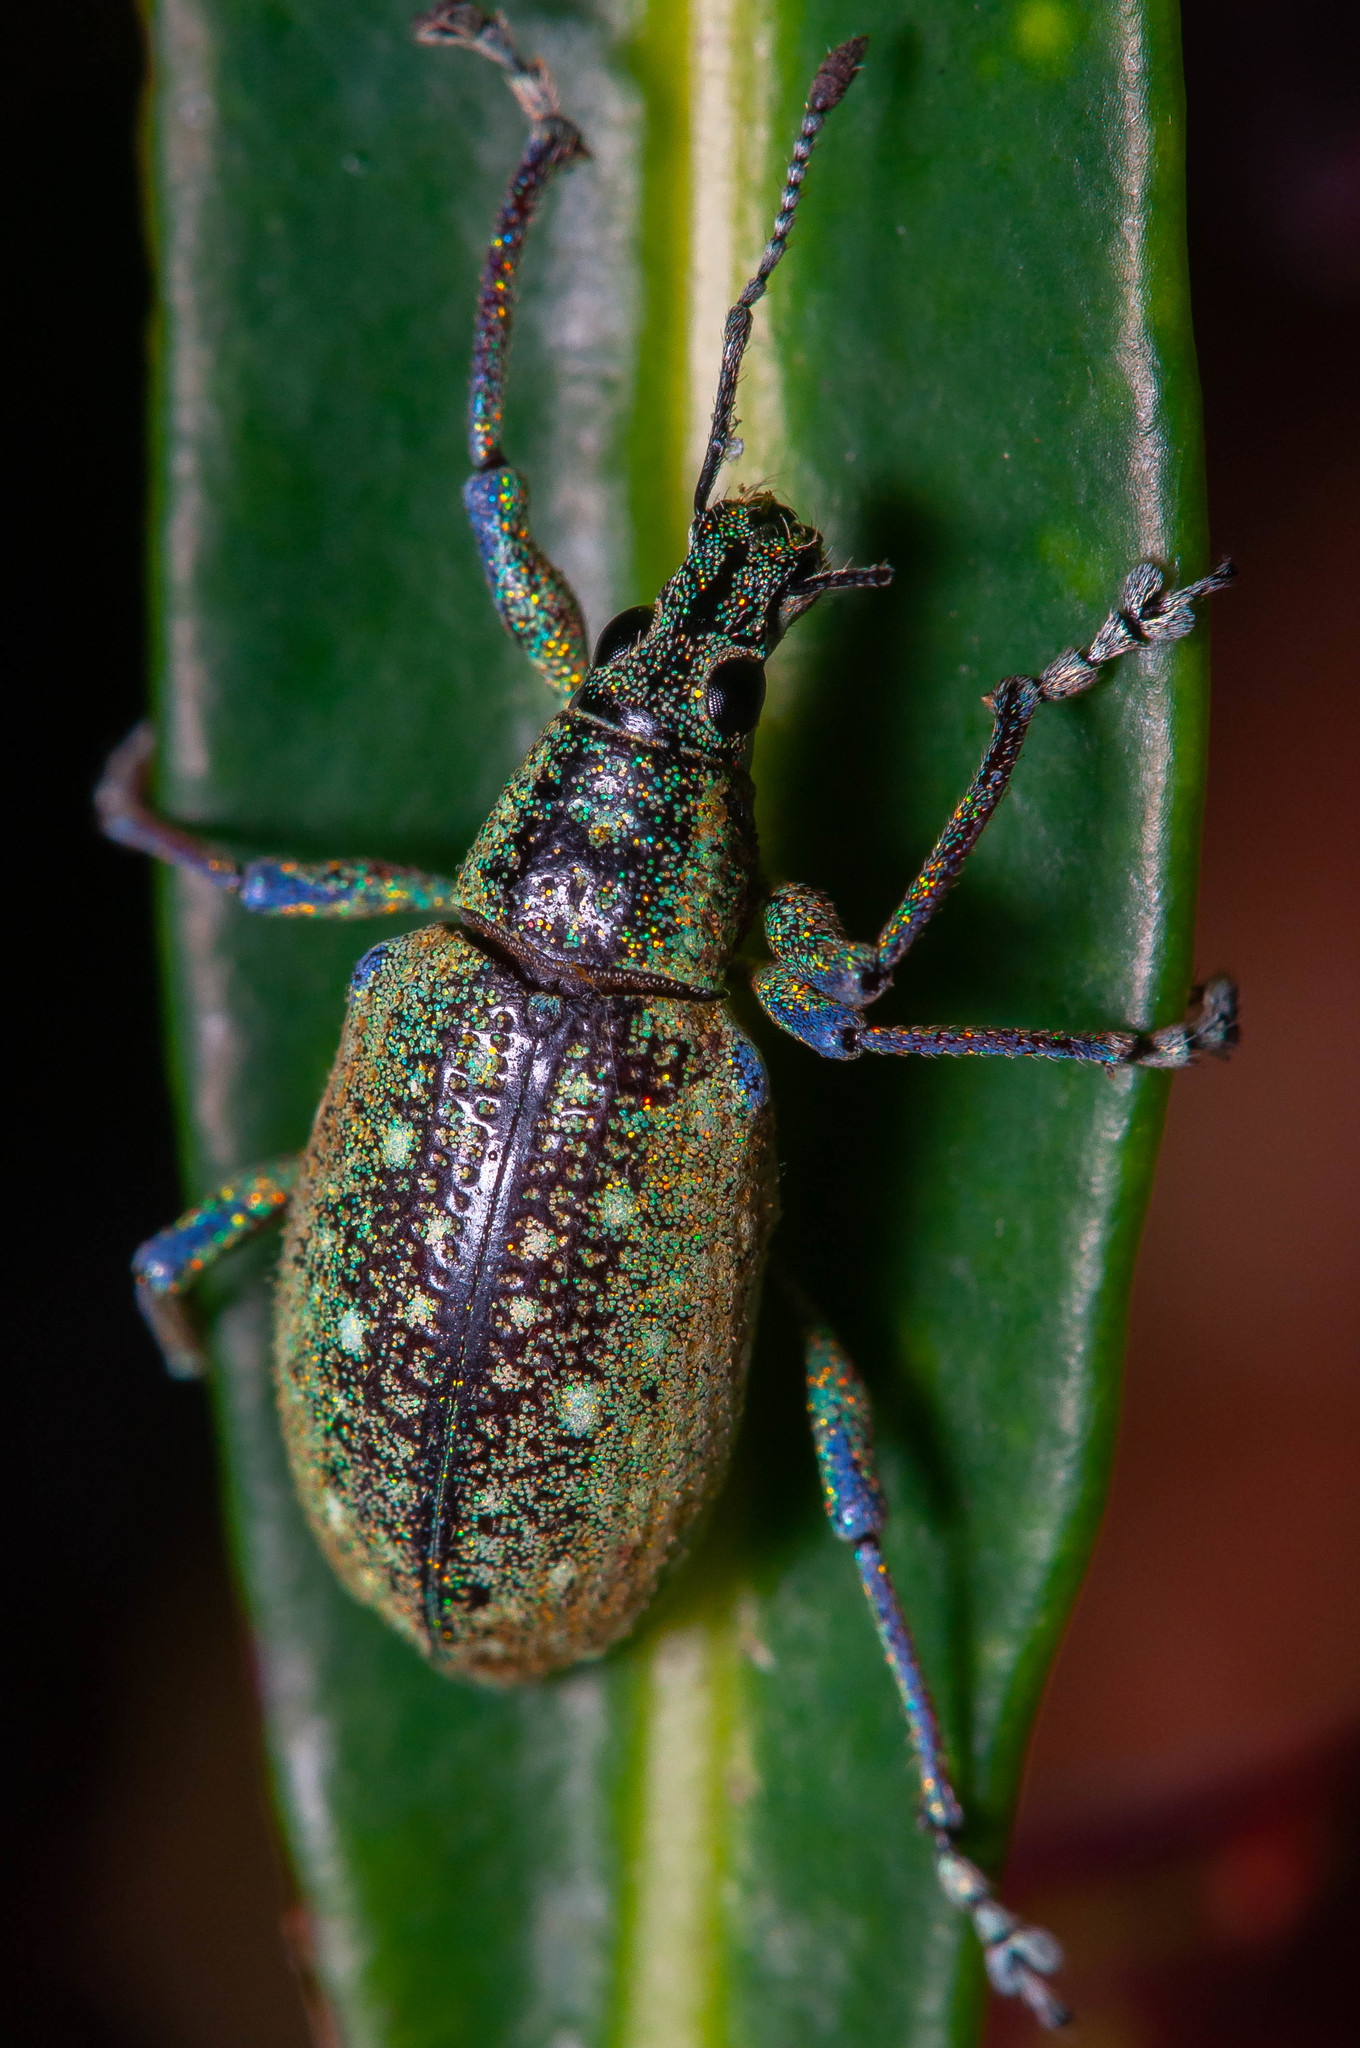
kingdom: Animalia
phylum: Arthropoda
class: Insecta
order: Coleoptera
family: Curculionidae
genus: Exophthalmus
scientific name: Exophthalmus jekelianus
